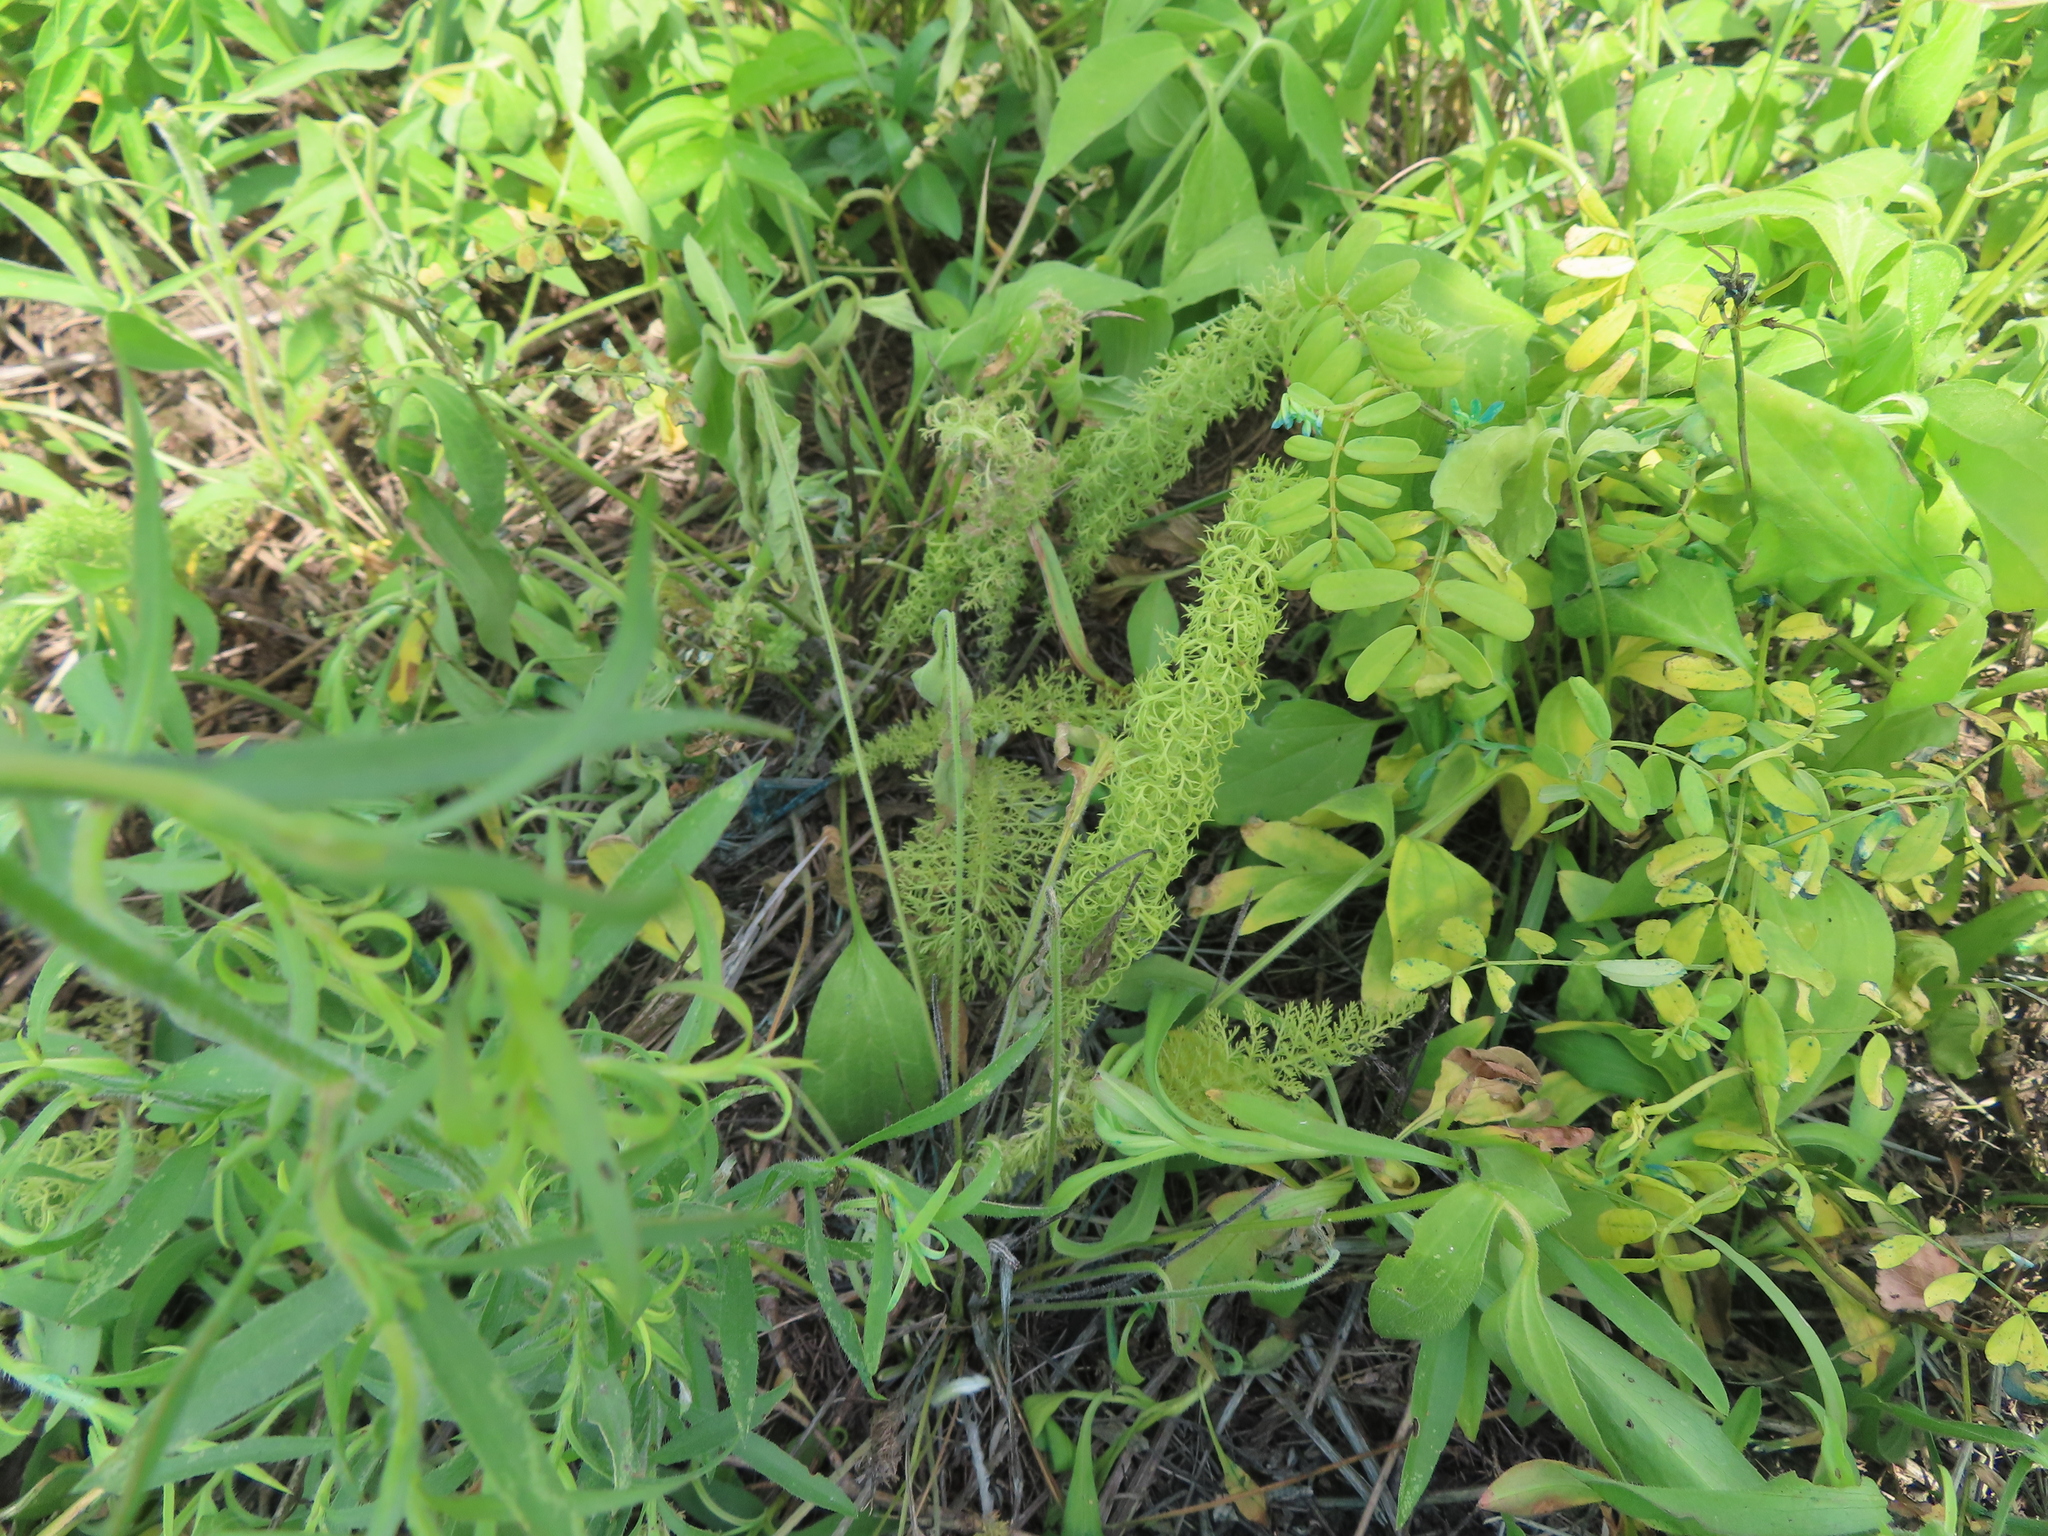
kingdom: Plantae
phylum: Tracheophyta
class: Magnoliopsida
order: Asterales
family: Asteraceae
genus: Achillea
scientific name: Achillea millefolium
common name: Yarrow
